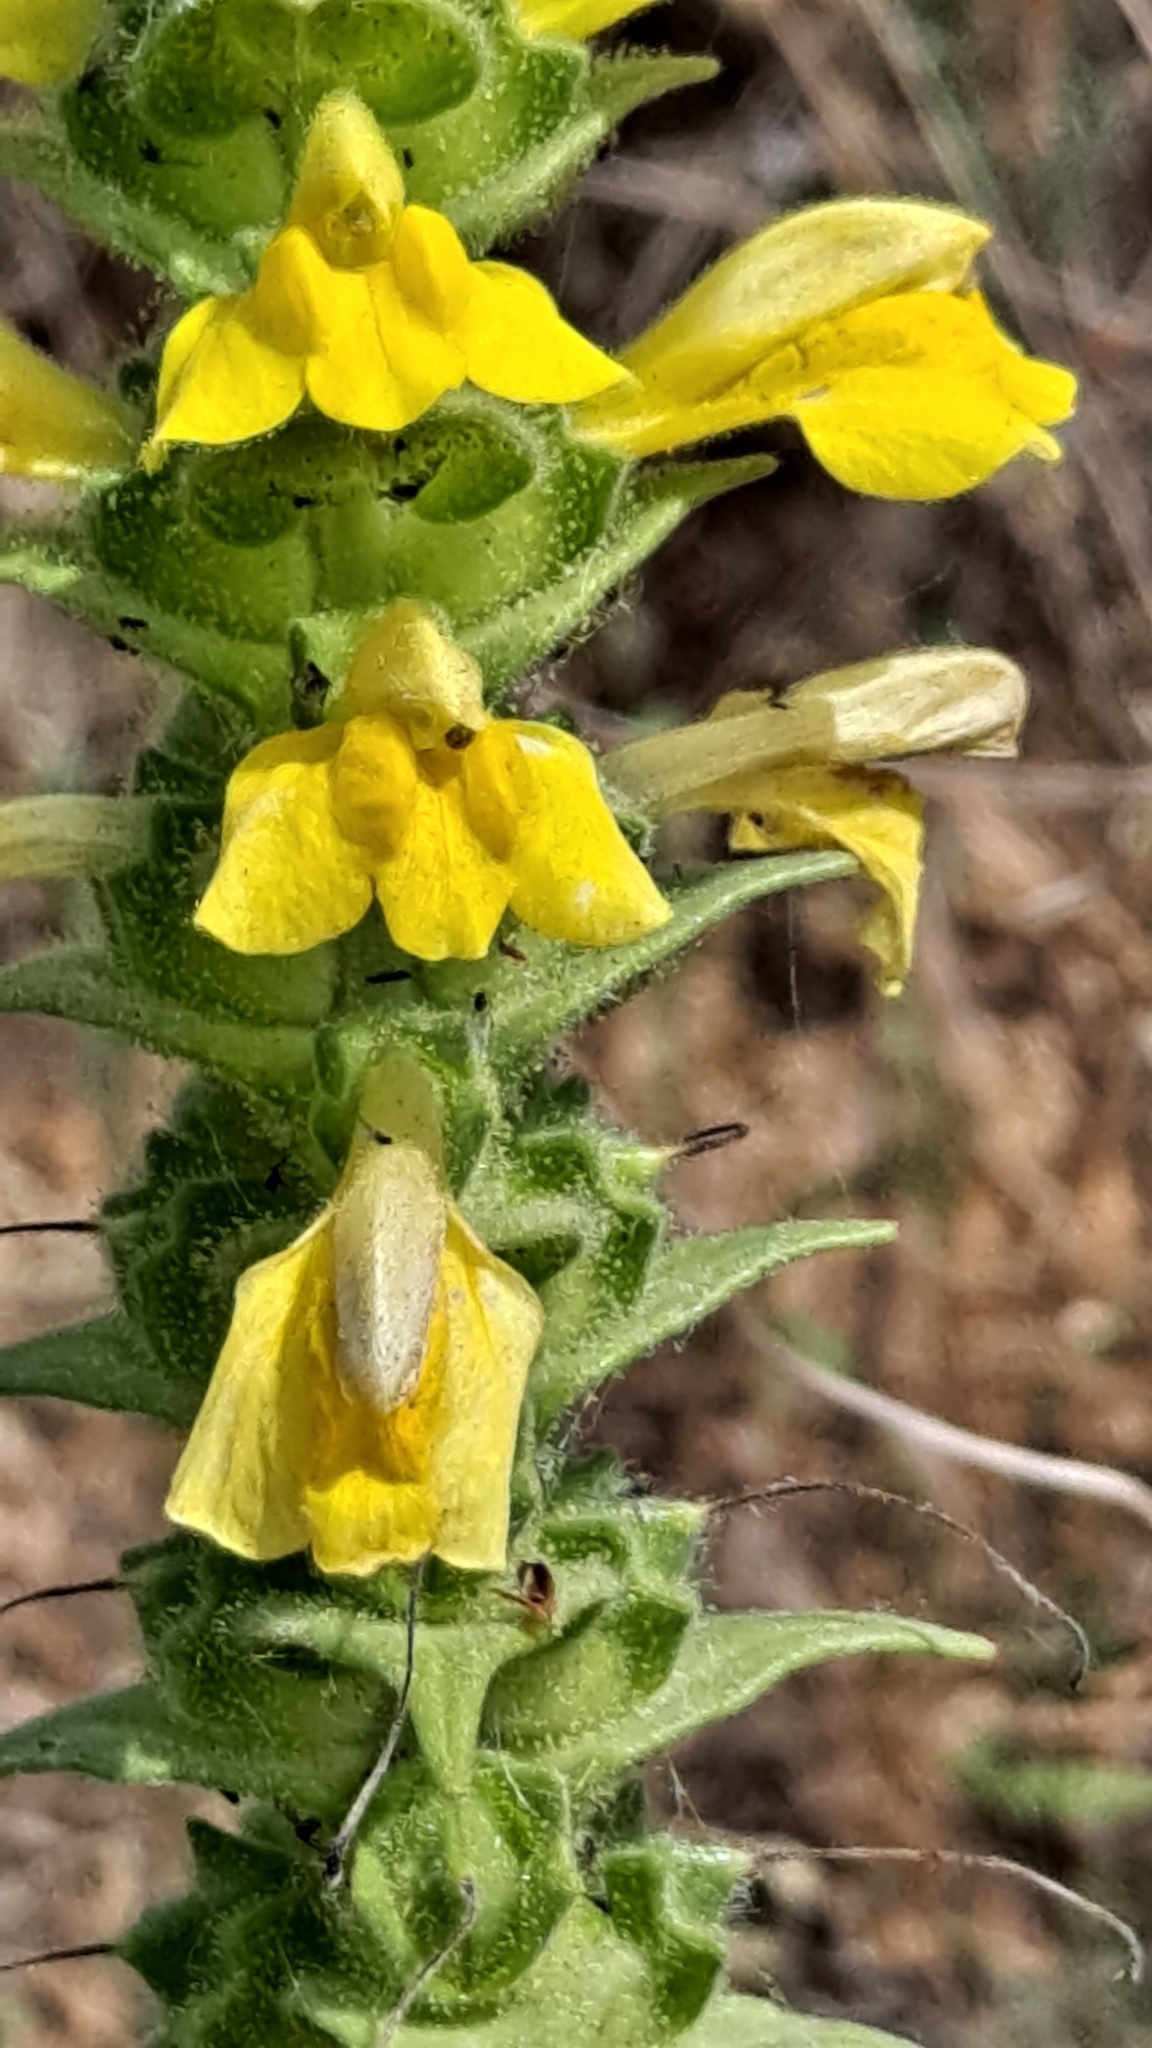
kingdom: Plantae
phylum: Tracheophyta
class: Magnoliopsida
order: Lamiales
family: Orobanchaceae
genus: Bellardia
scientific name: Bellardia trixago
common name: Mediterranean lineseed
